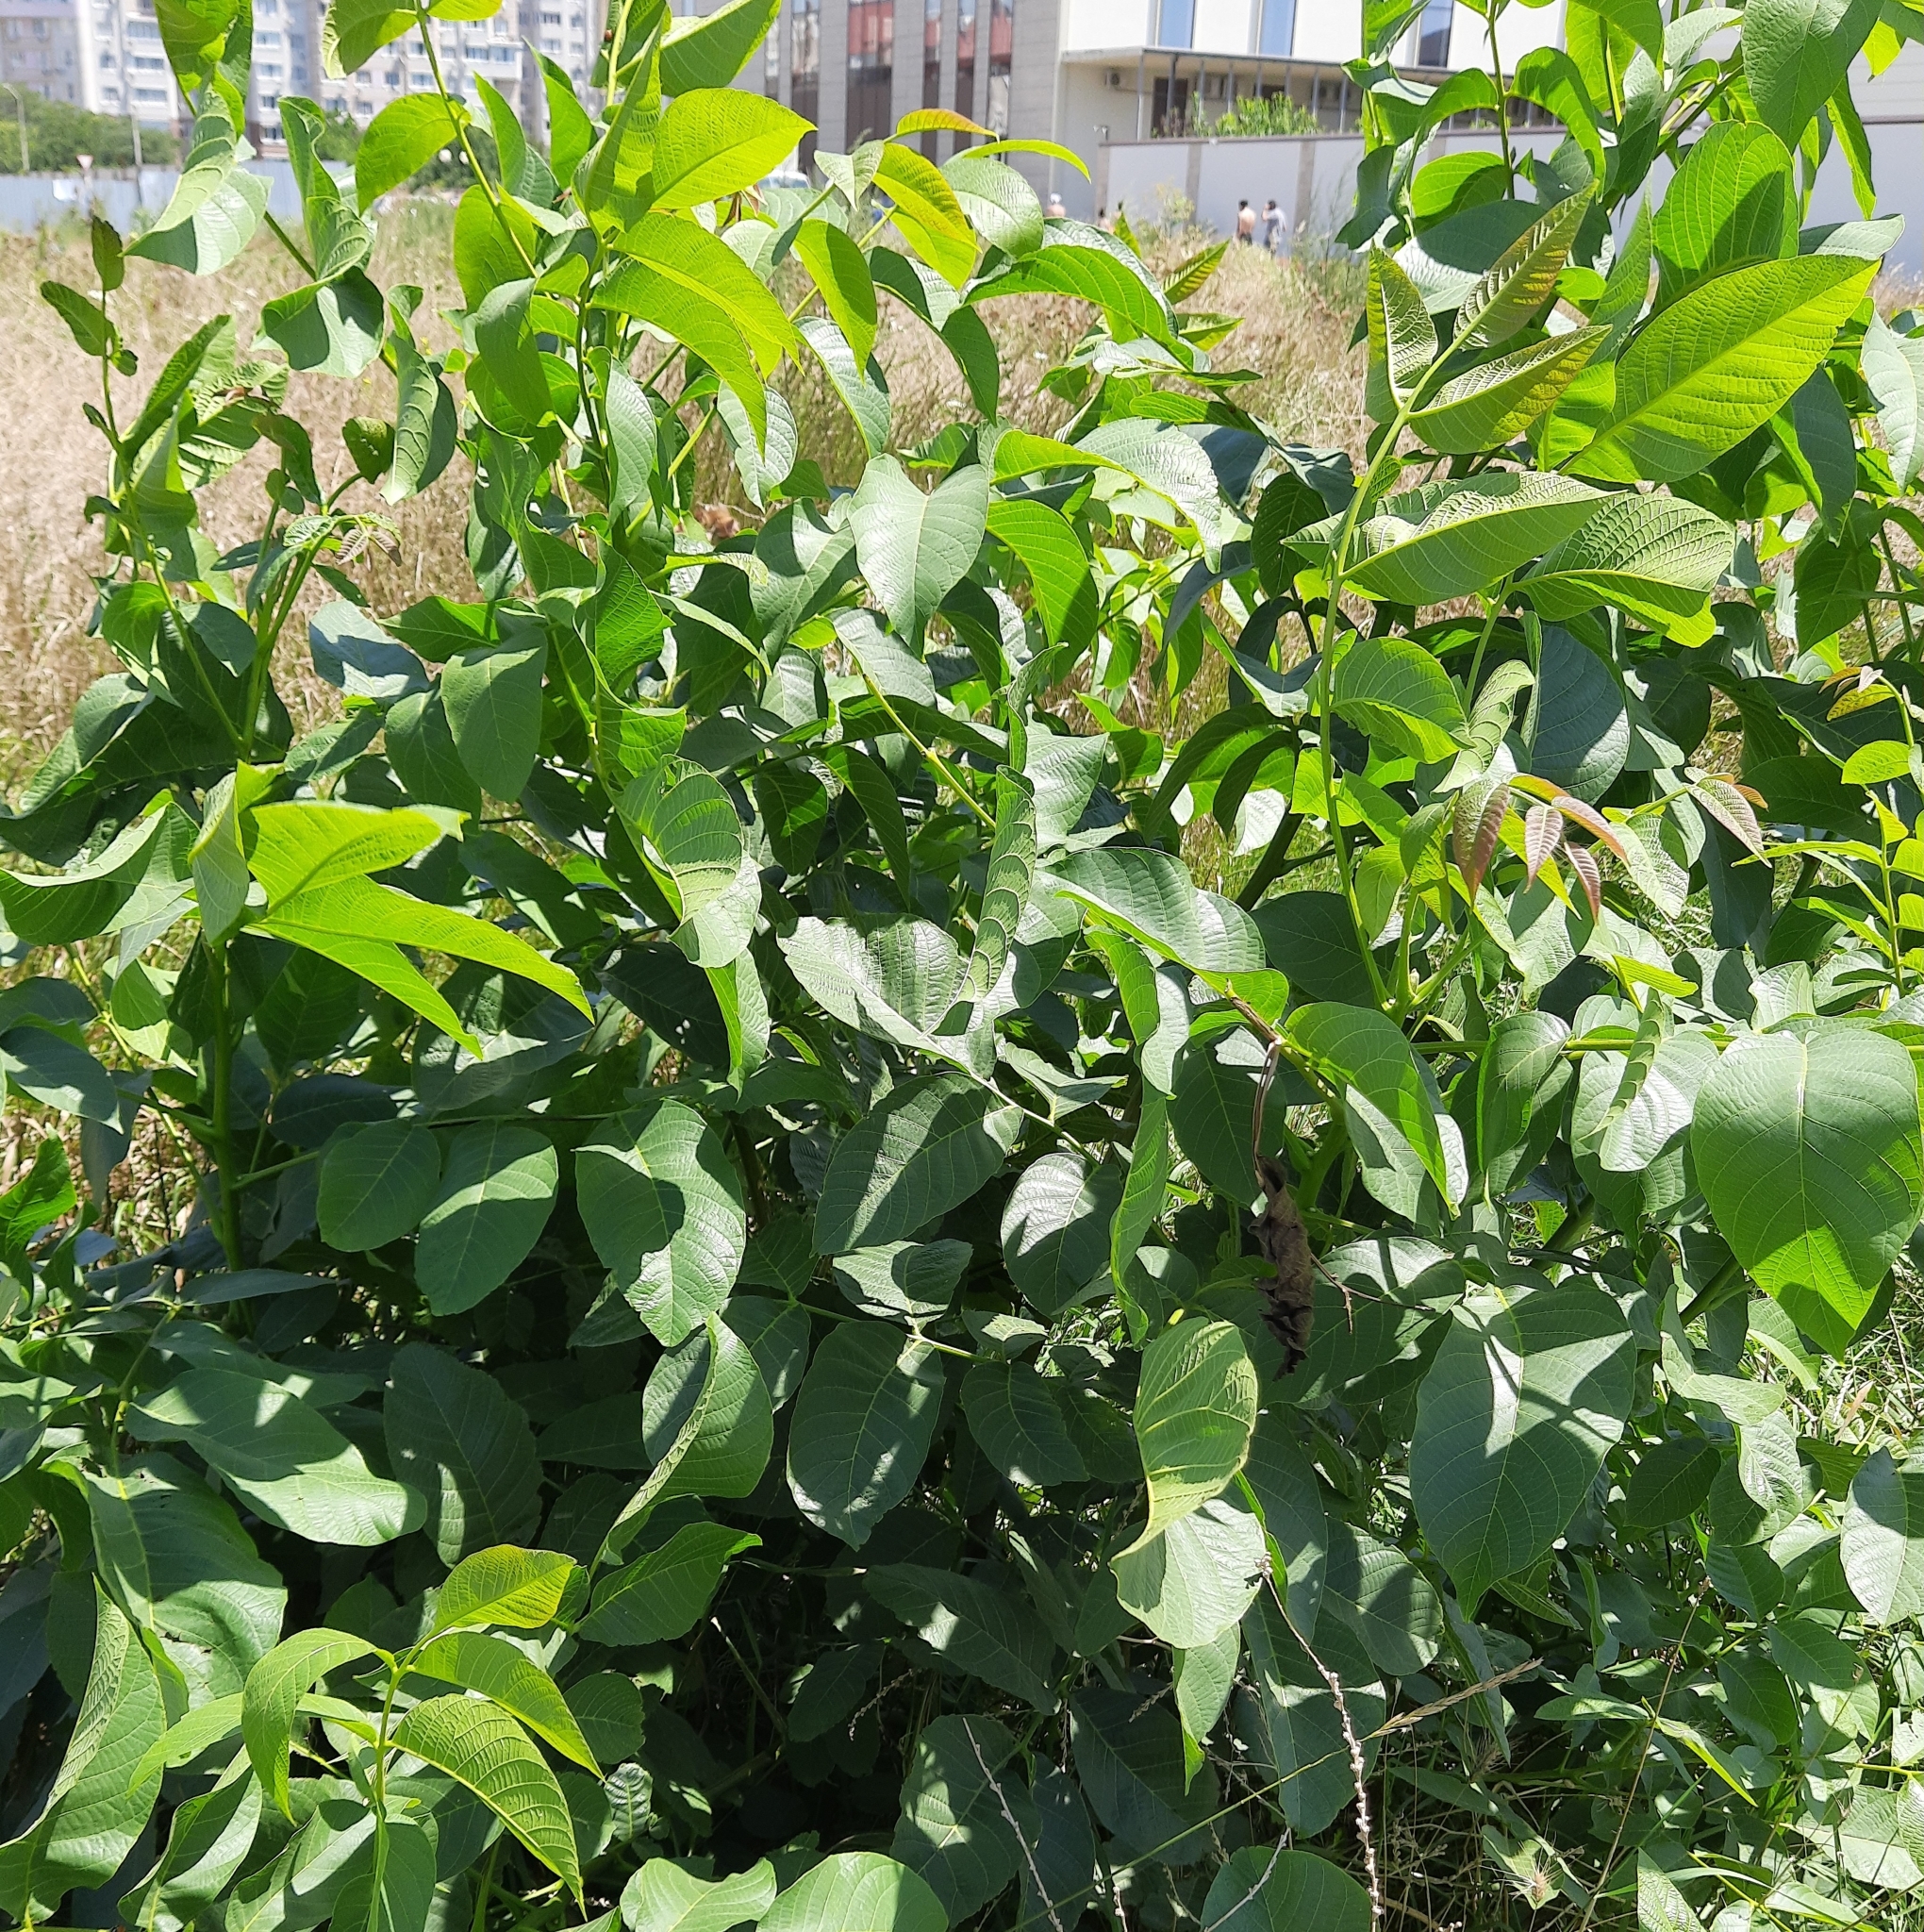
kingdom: Plantae
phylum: Tracheophyta
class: Magnoliopsida
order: Fagales
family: Juglandaceae
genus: Juglans
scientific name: Juglans regia
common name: Walnut
